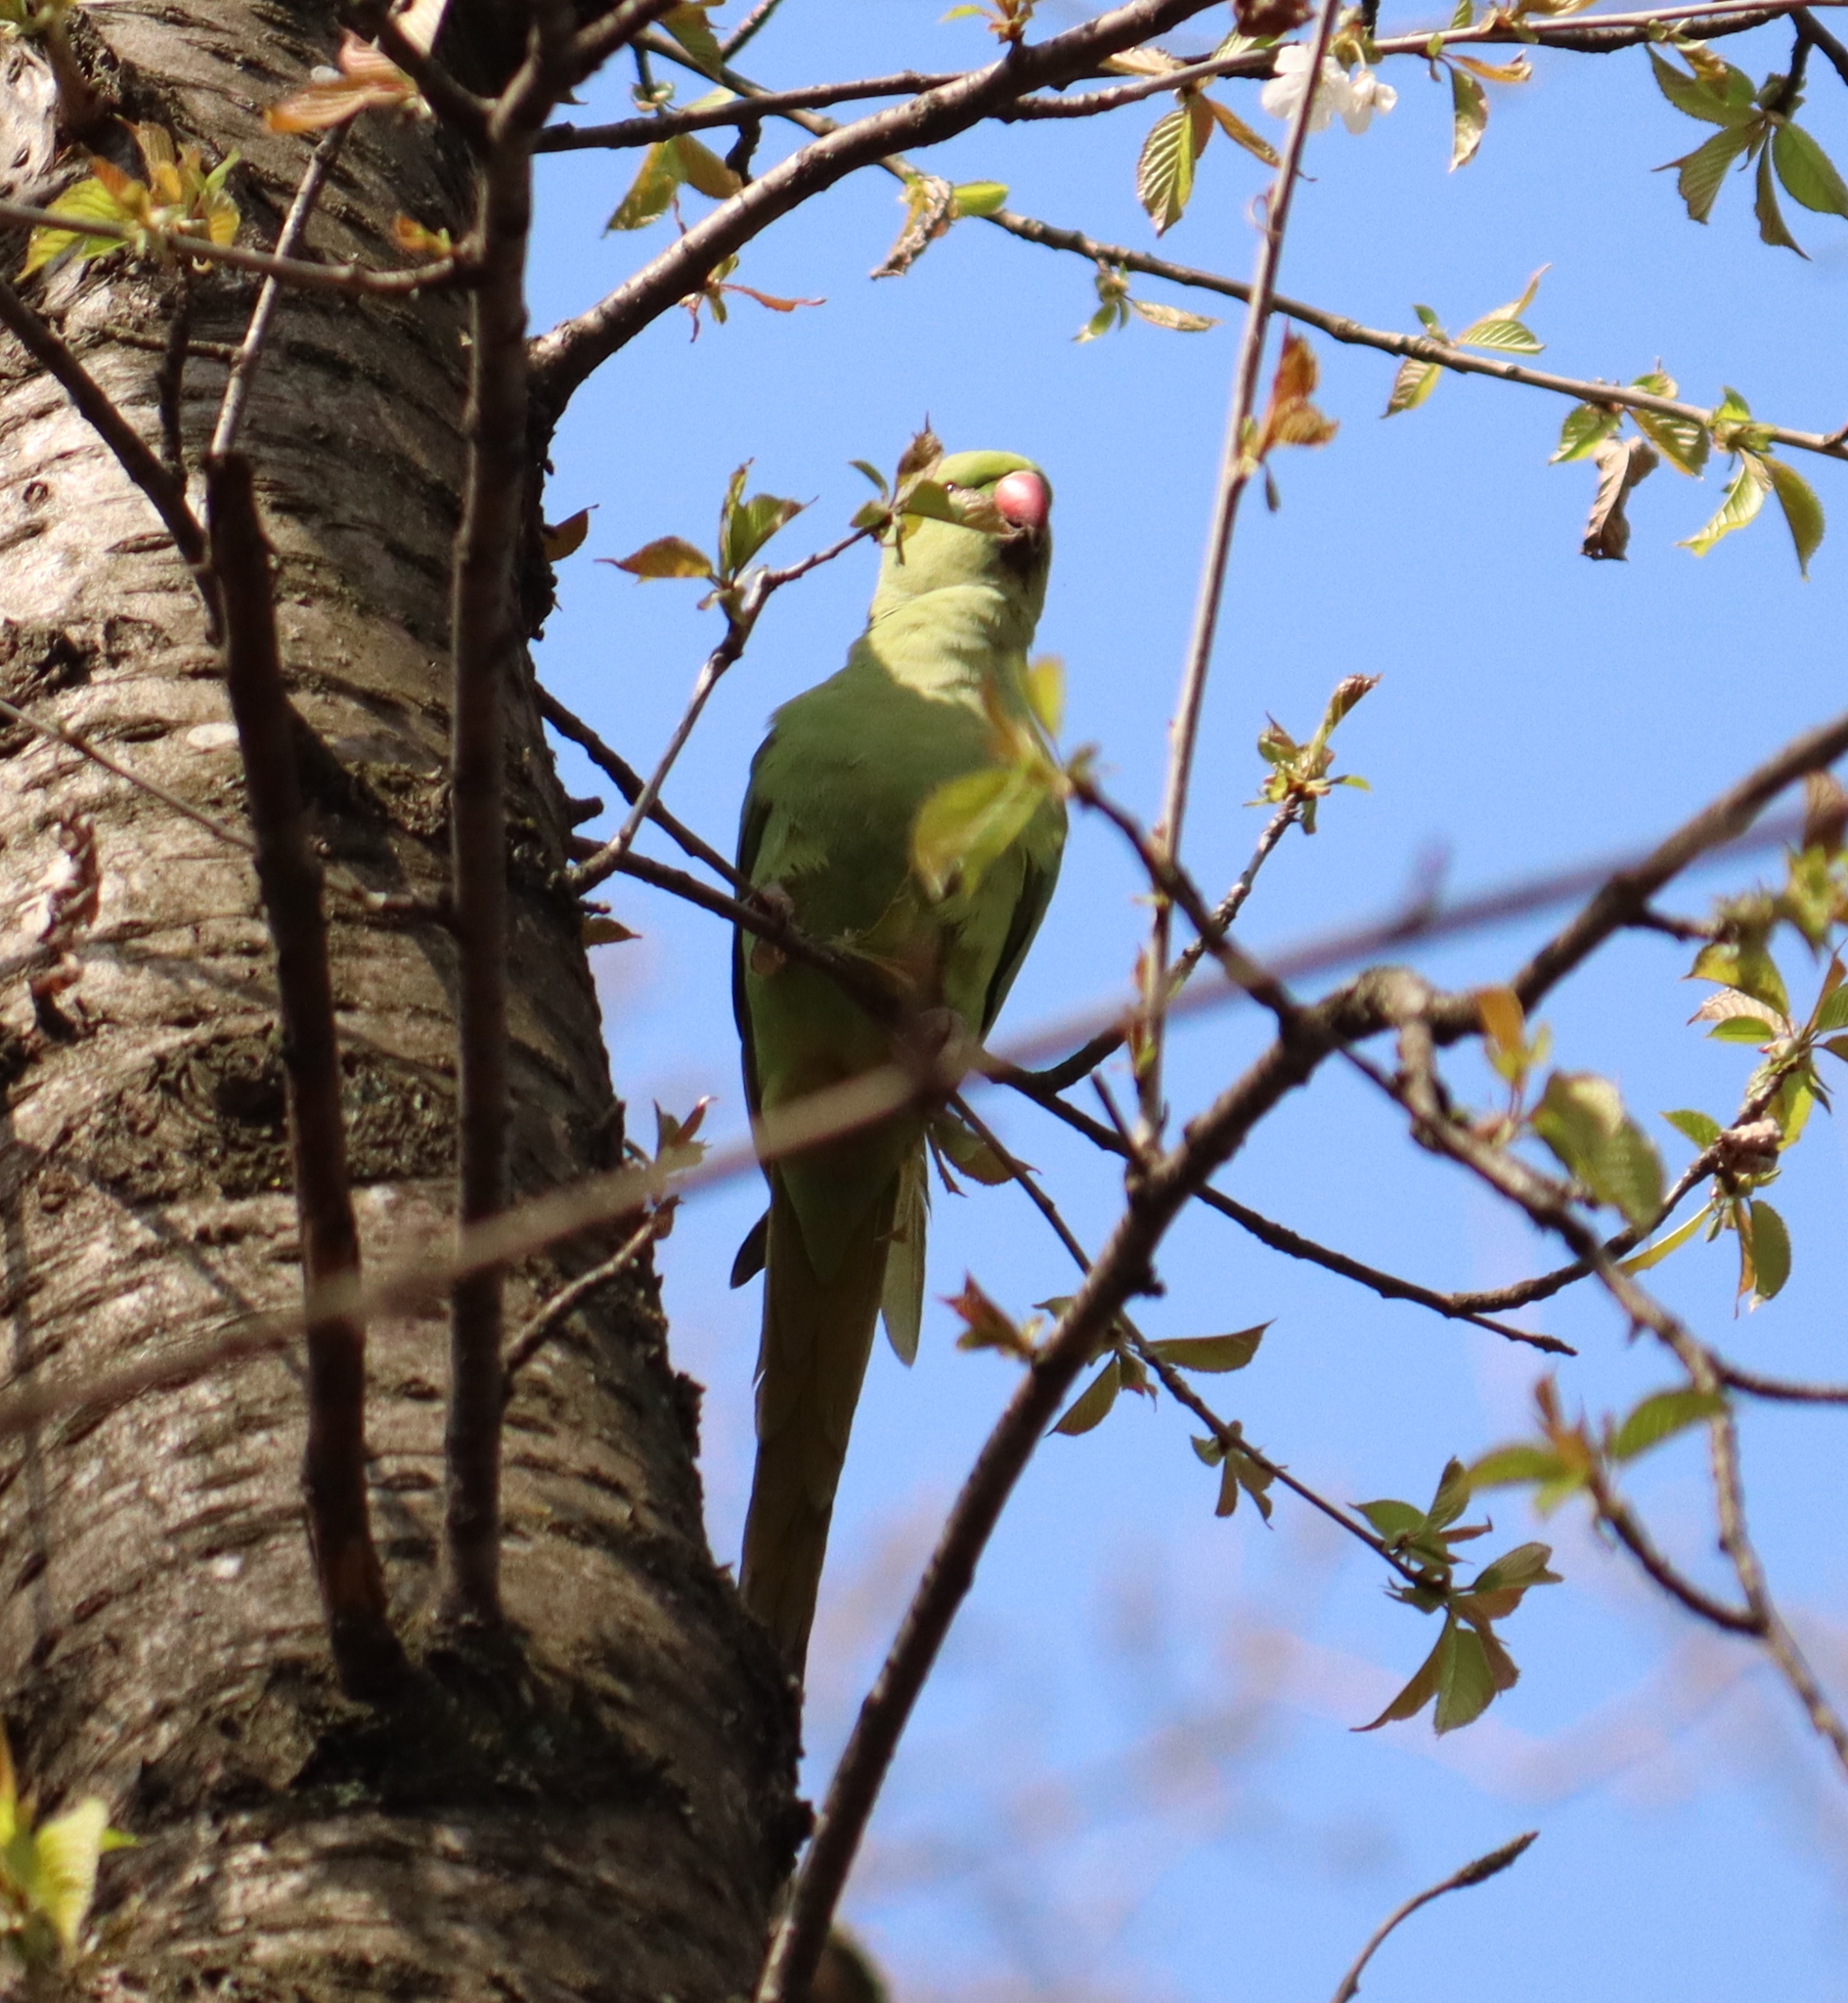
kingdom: Animalia
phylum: Chordata
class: Aves
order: Psittaciformes
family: Psittacidae
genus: Psittacula
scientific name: Psittacula krameri
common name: Rose-ringed parakeet
